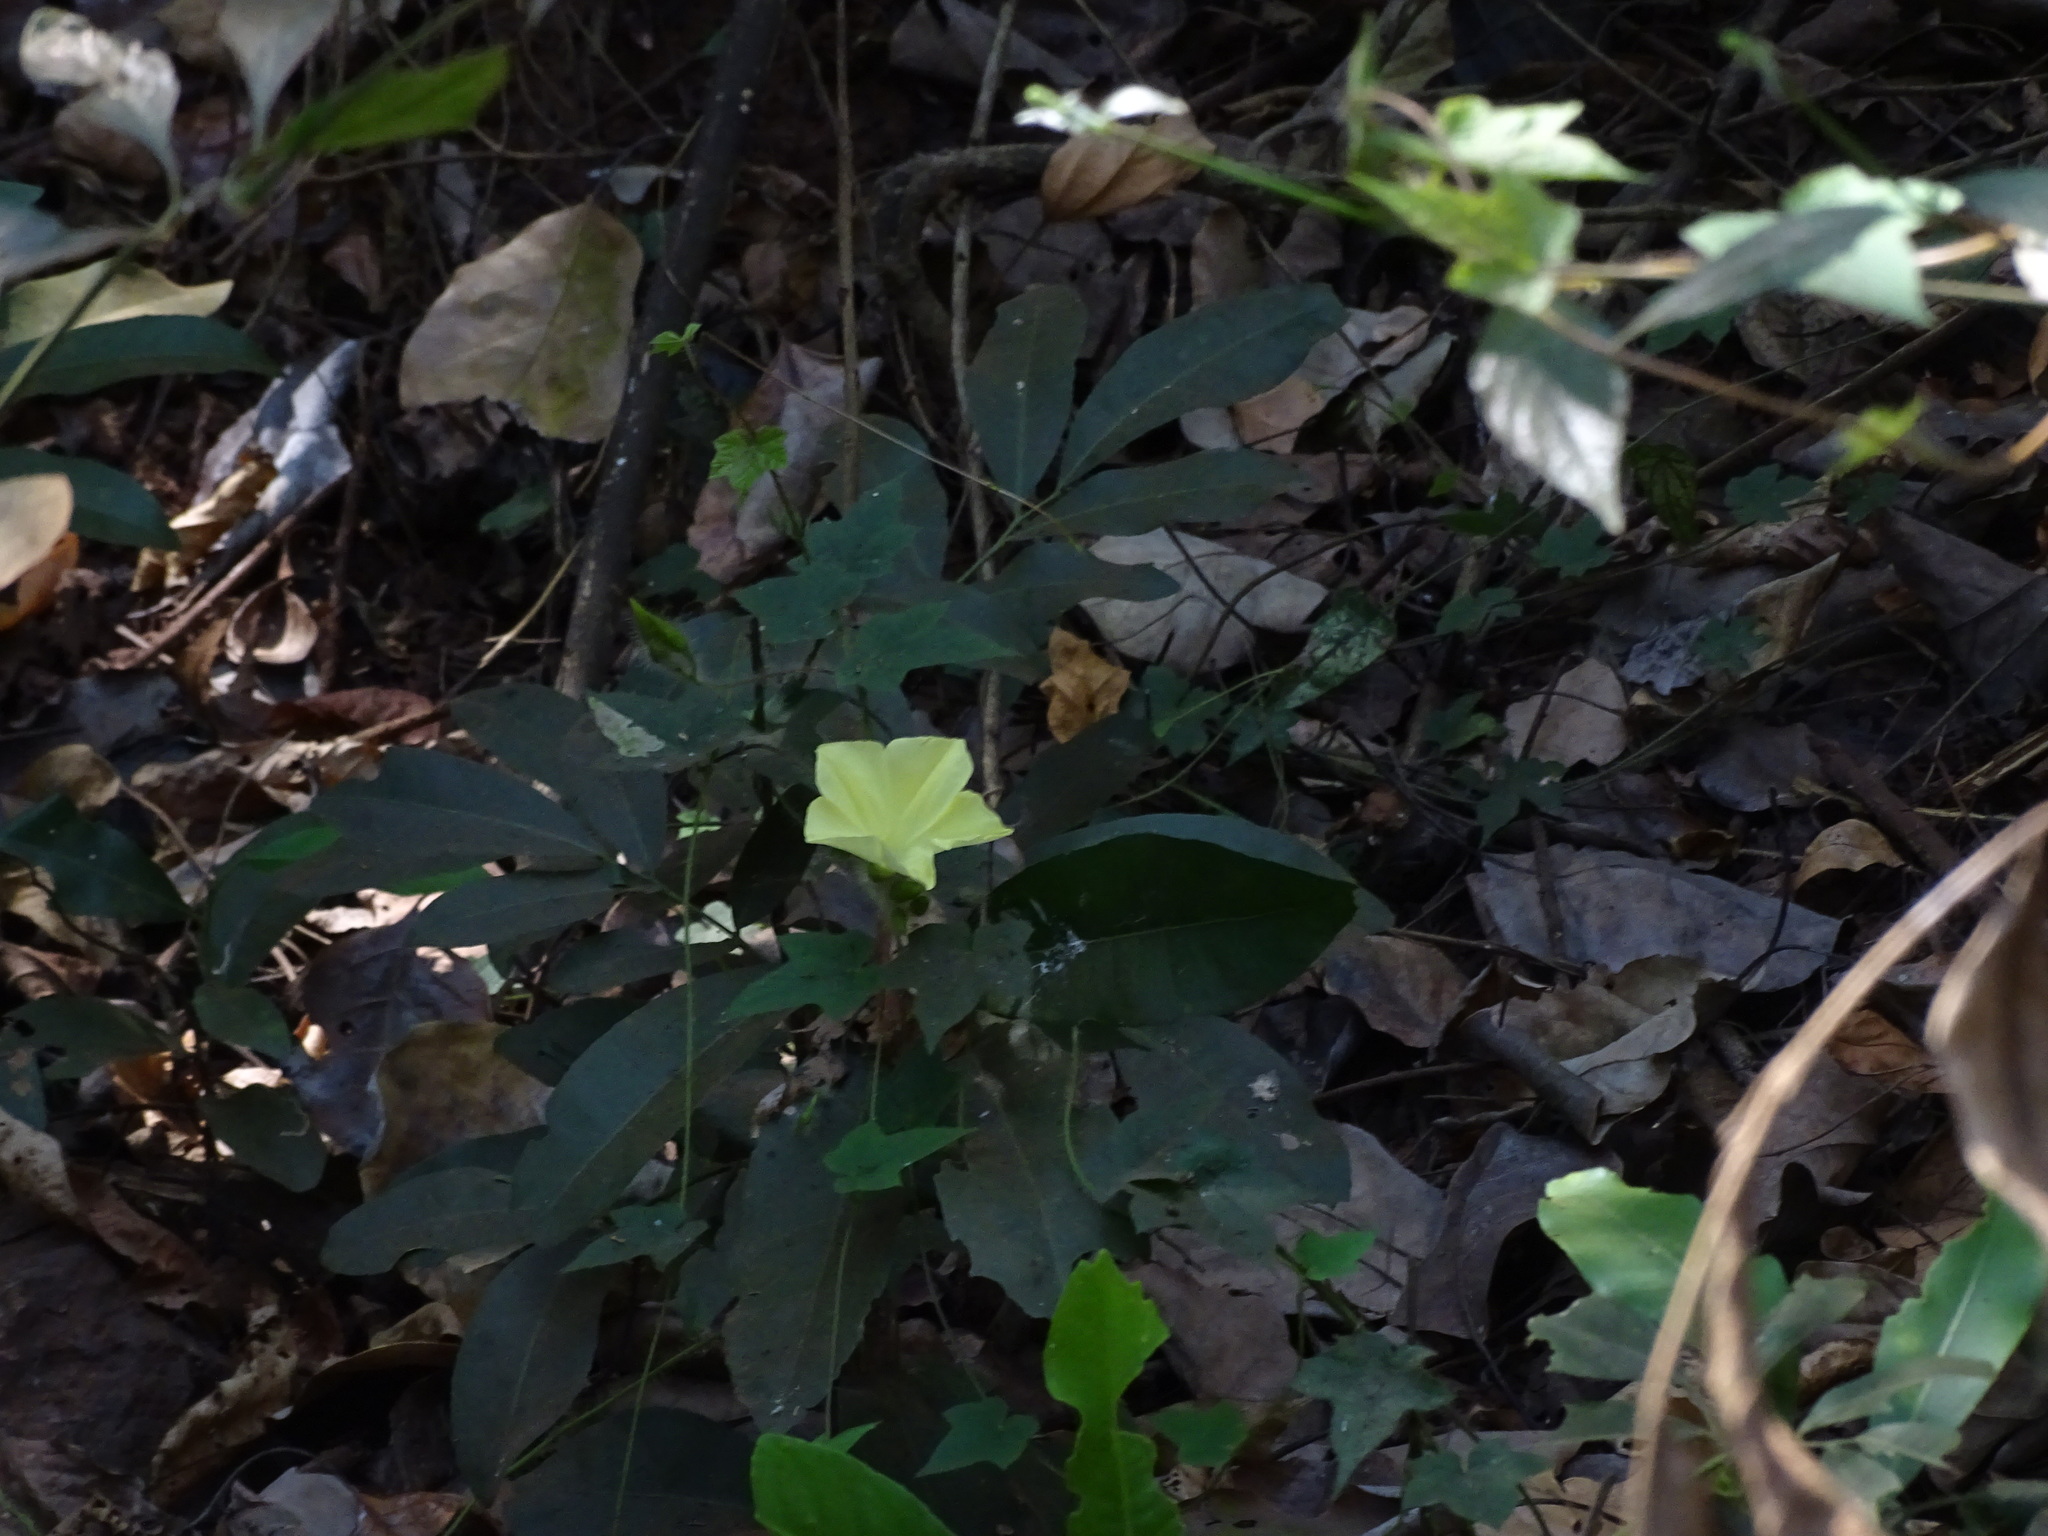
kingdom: Plantae
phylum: Tracheophyta
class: Magnoliopsida
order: Solanales
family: Convolvulaceae
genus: Distimake
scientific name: Distimake
